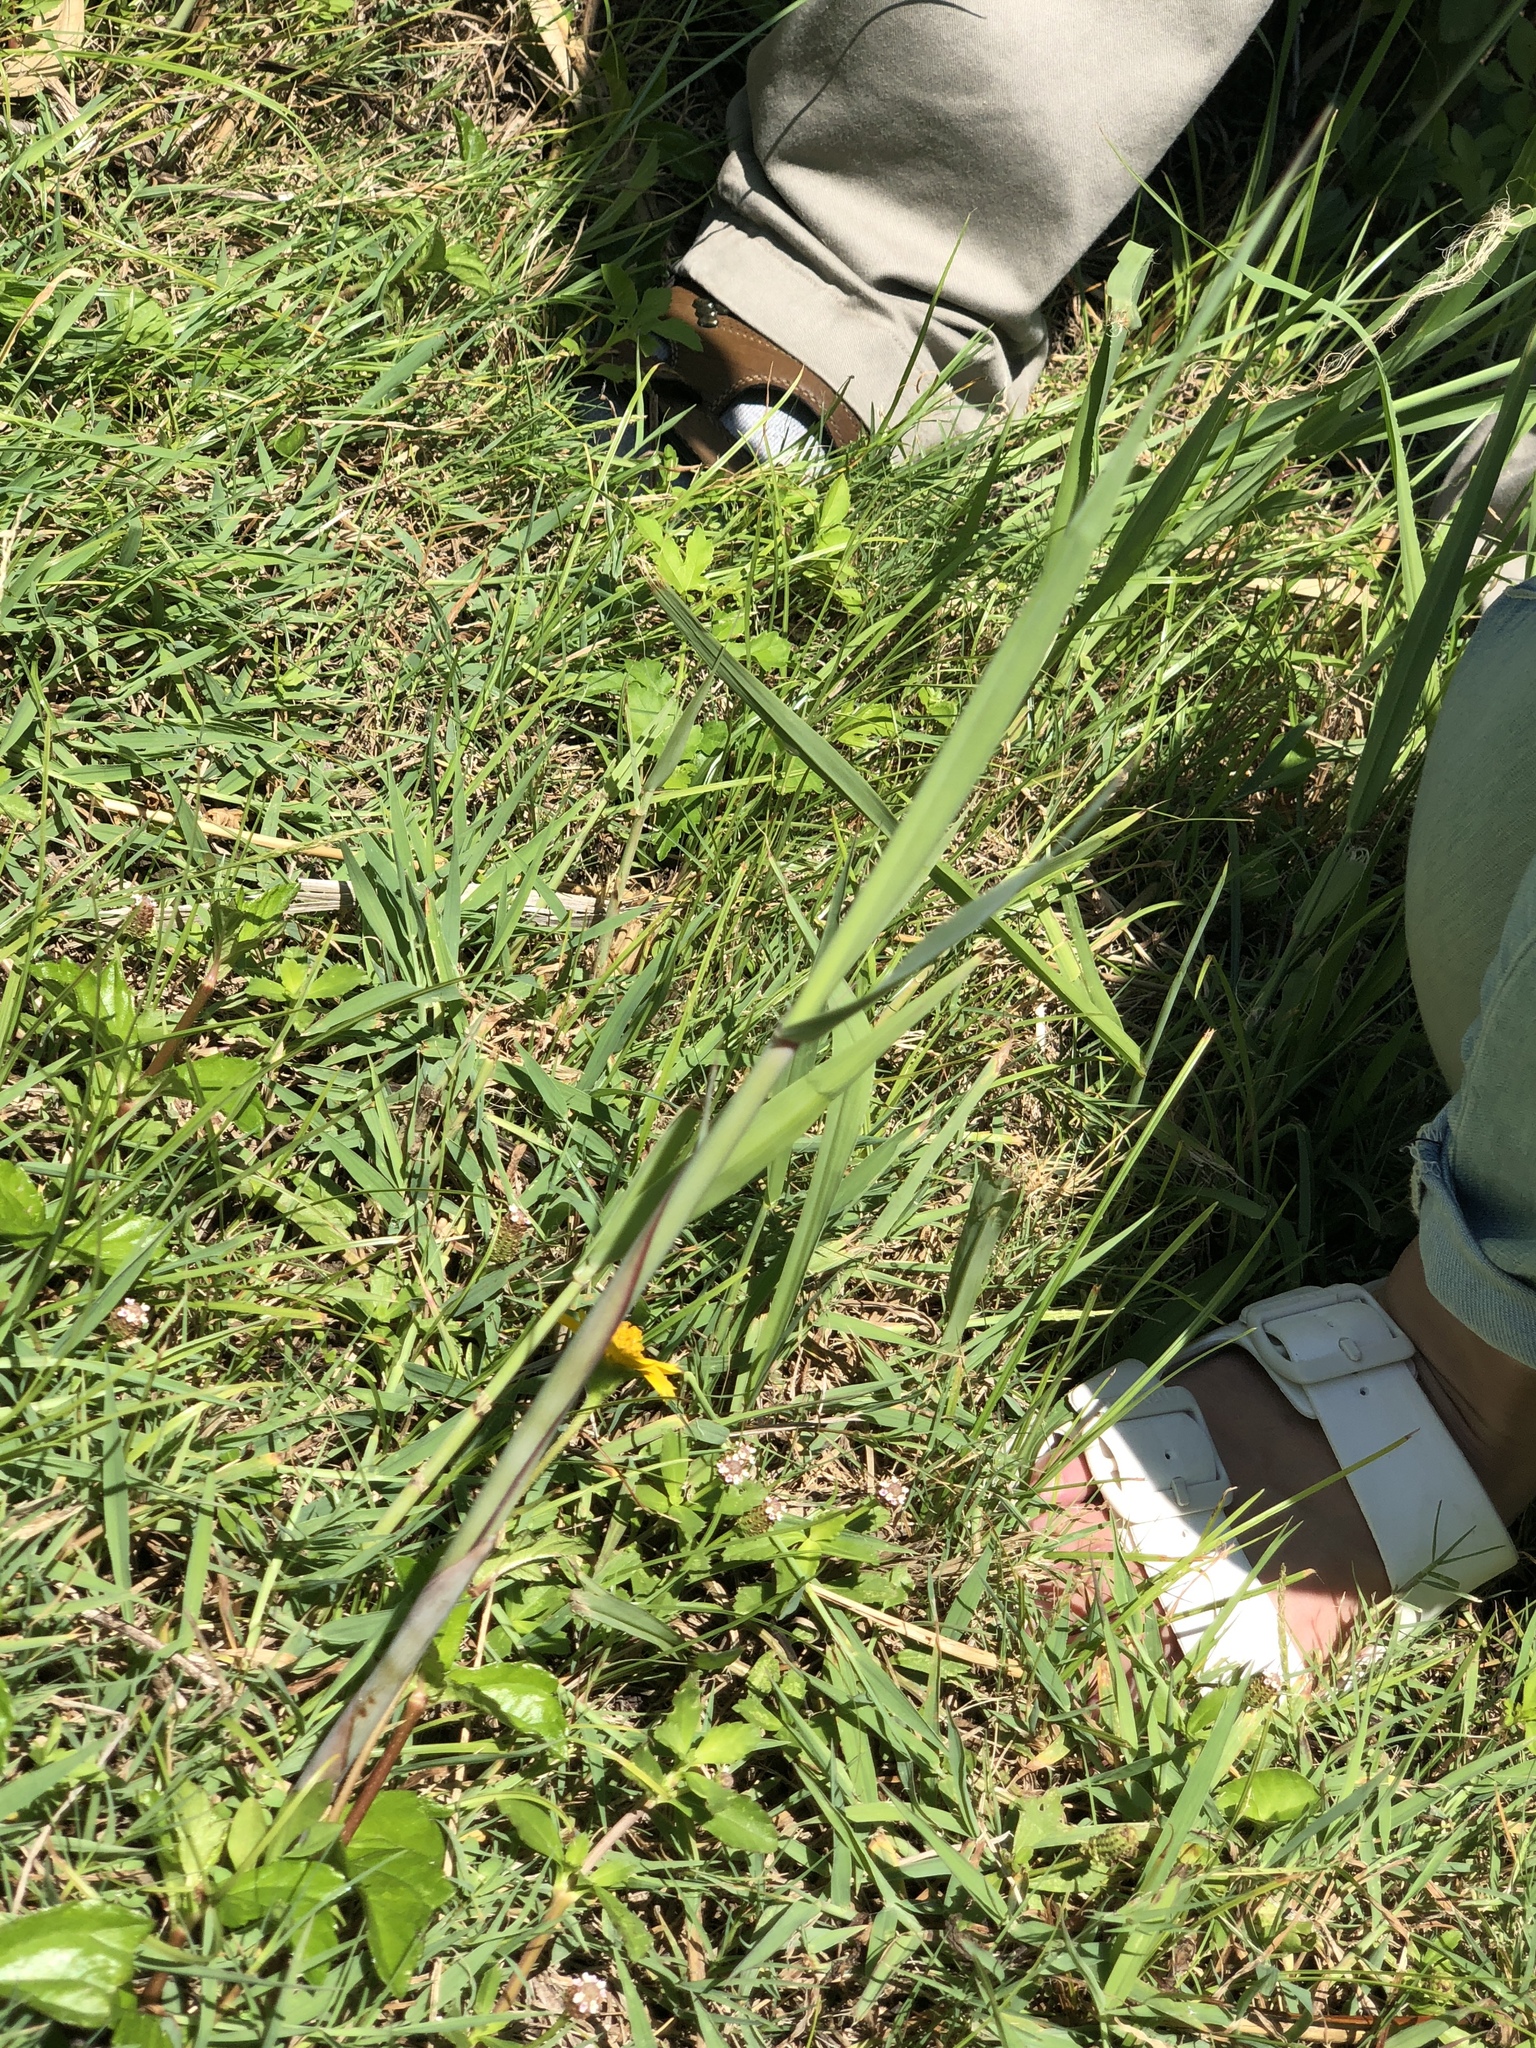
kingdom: Plantae
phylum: Tracheophyta
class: Liliopsida
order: Poales
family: Poaceae
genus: Phragmites
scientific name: Phragmites australis
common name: Common reed
